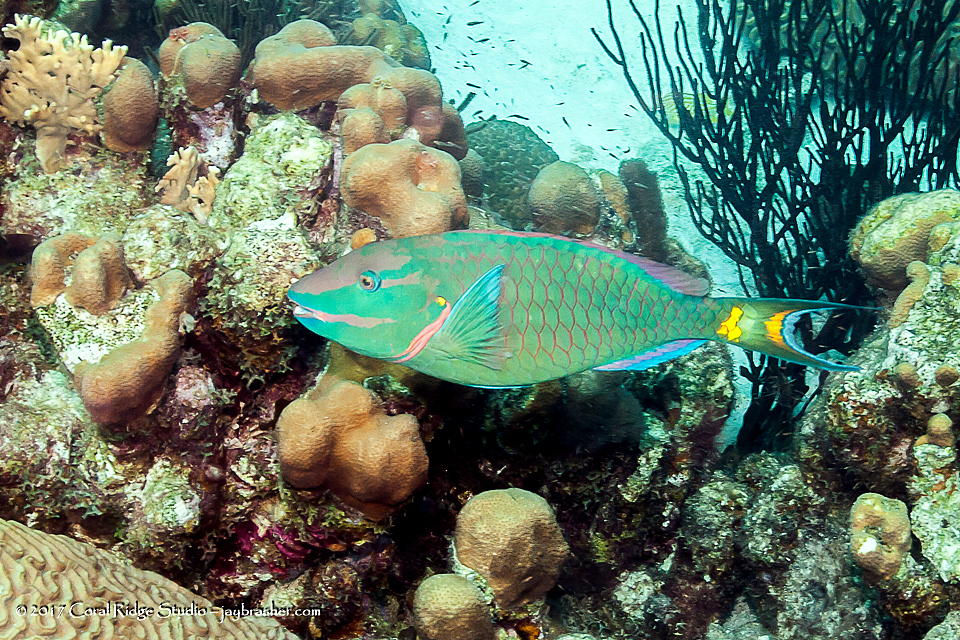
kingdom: Animalia
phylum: Chordata
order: Perciformes
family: Scaridae
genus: Sparisoma
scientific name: Sparisoma viride
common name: Stoplight parrotfish
